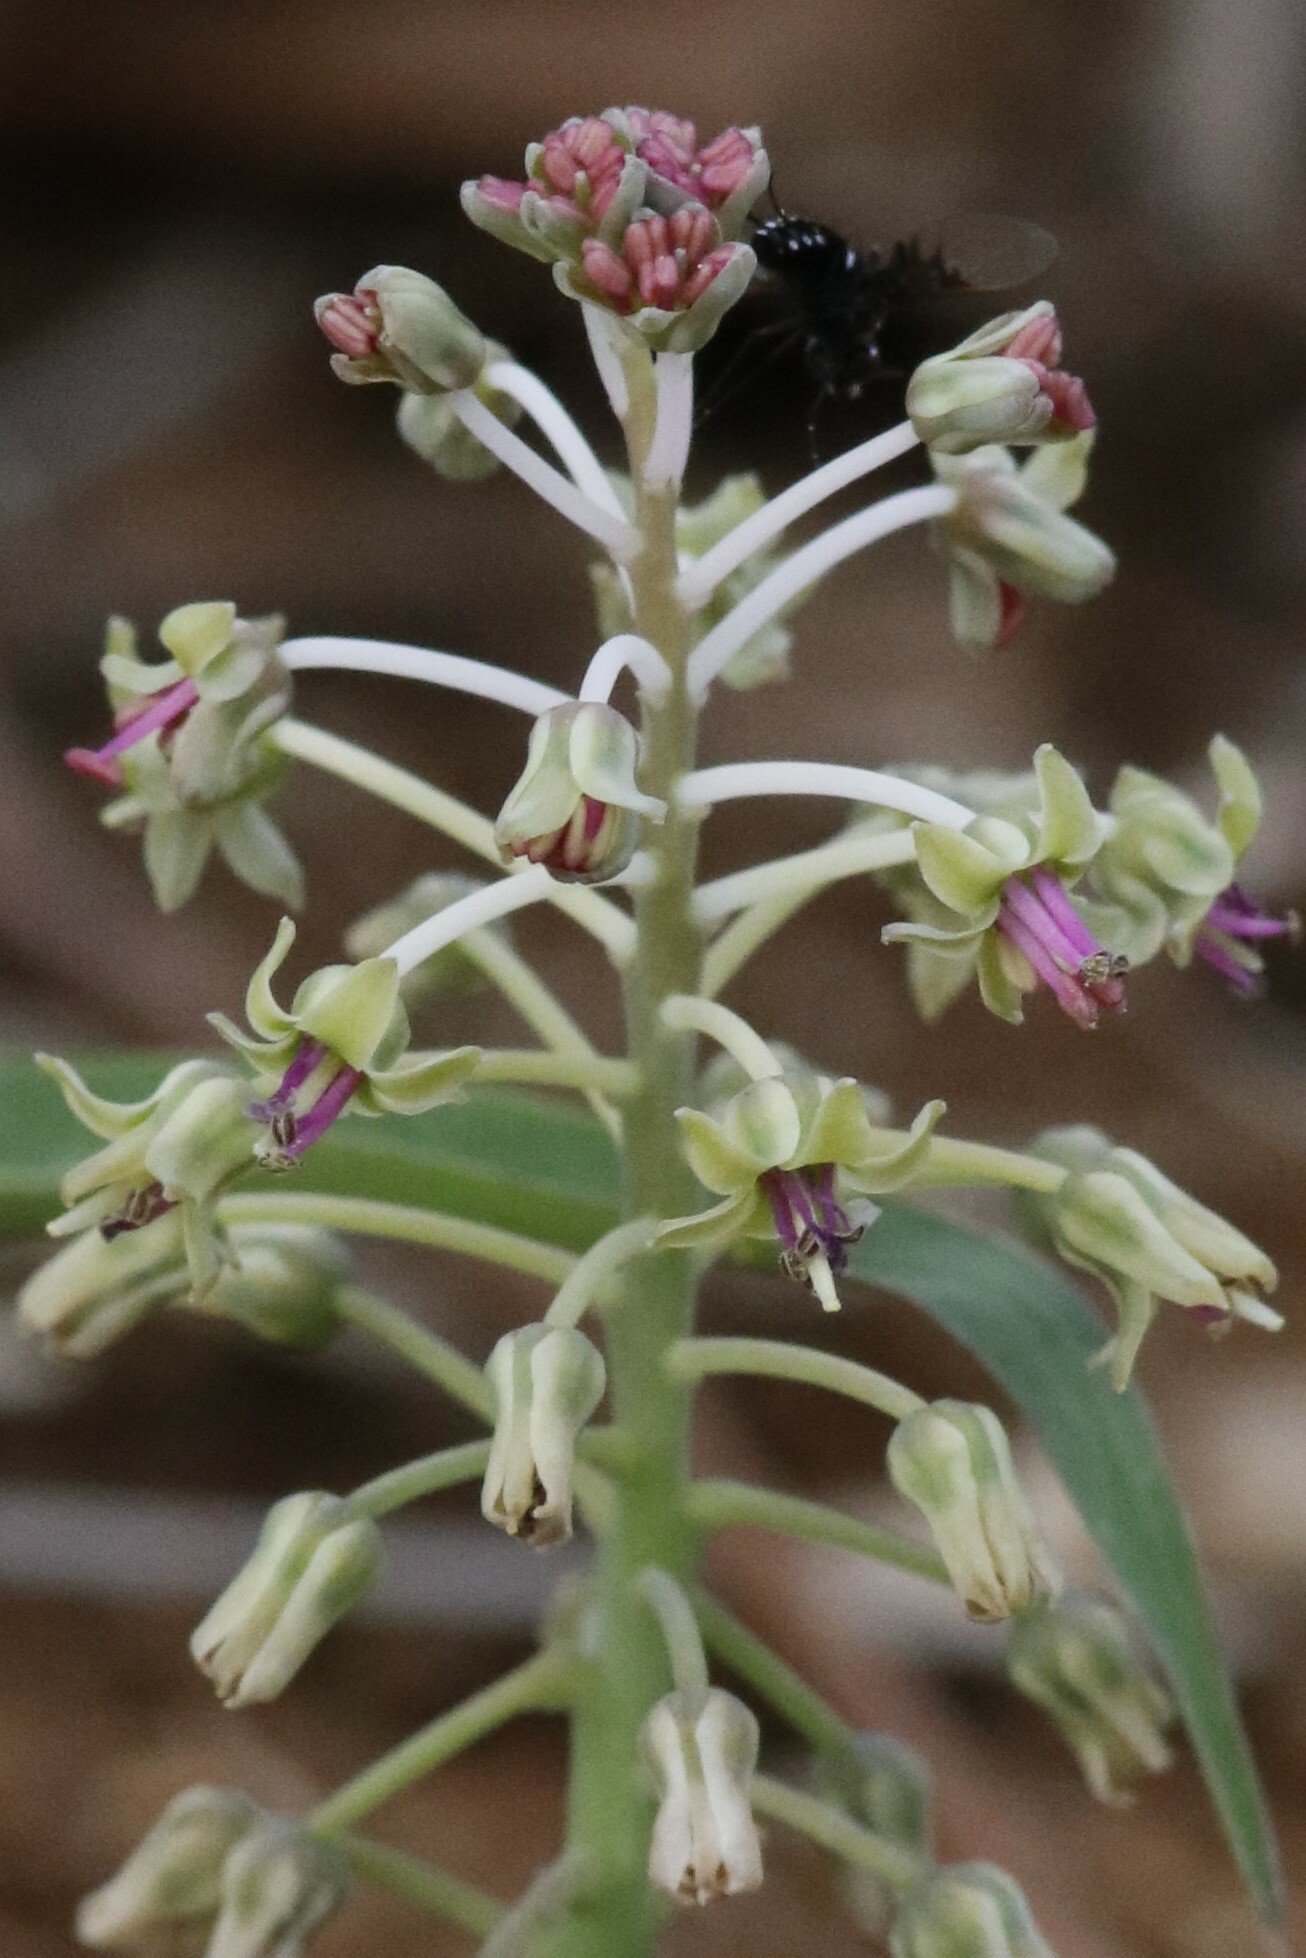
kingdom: Plantae
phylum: Tracheophyta
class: Liliopsida
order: Asparagales
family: Asparagaceae
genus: Ledebouria
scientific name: Ledebouria asperifolia
